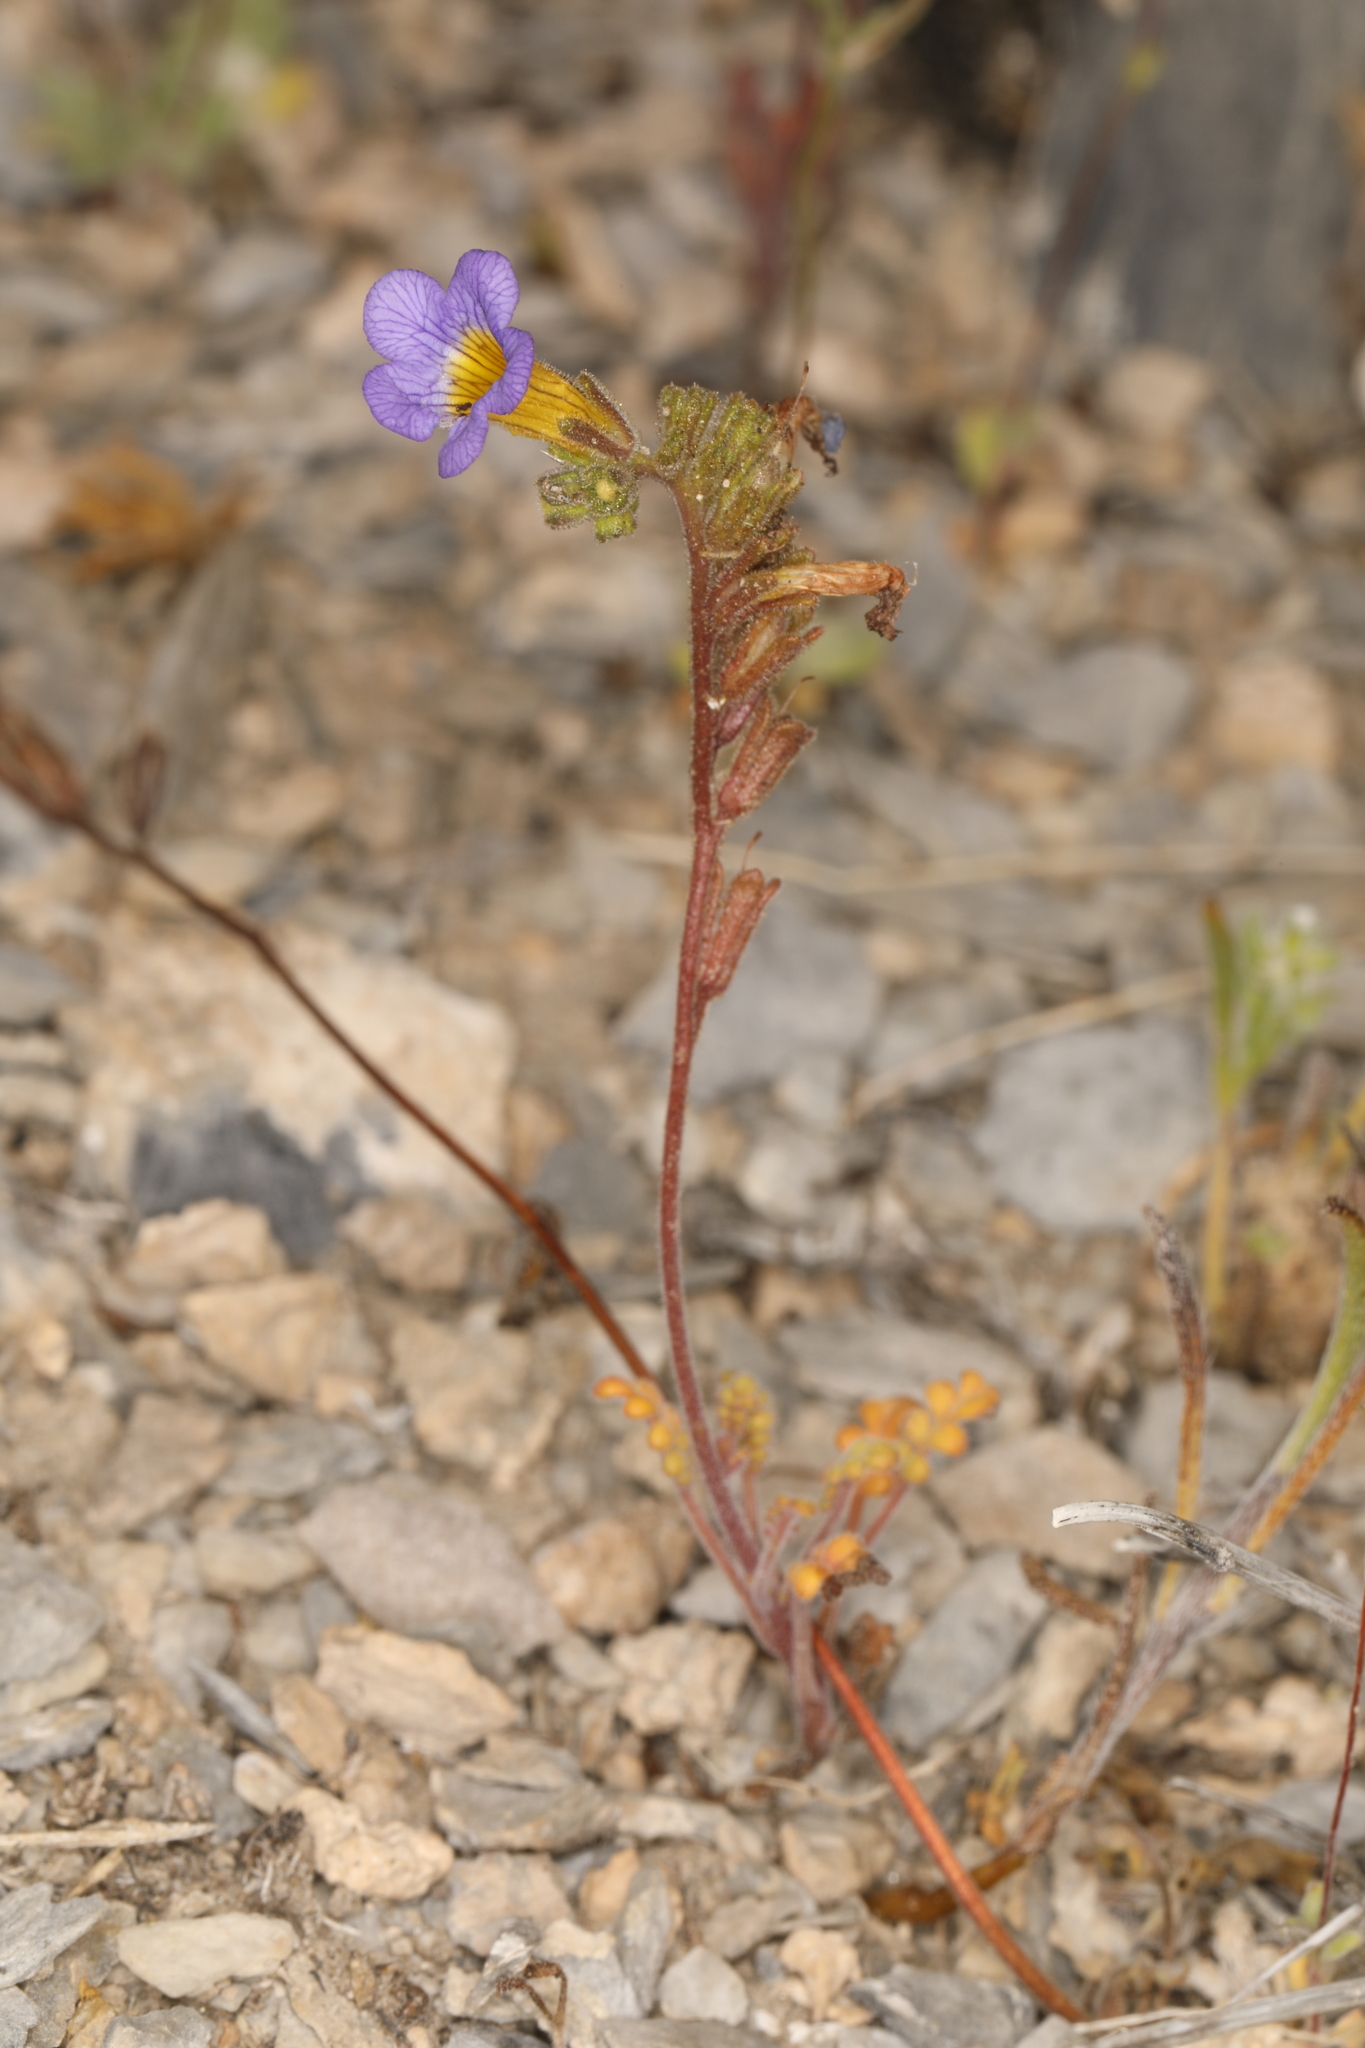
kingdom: Plantae
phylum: Tracheophyta
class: Magnoliopsida
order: Boraginales
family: Hydrophyllaceae
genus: Phacelia
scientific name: Phacelia fremontii
